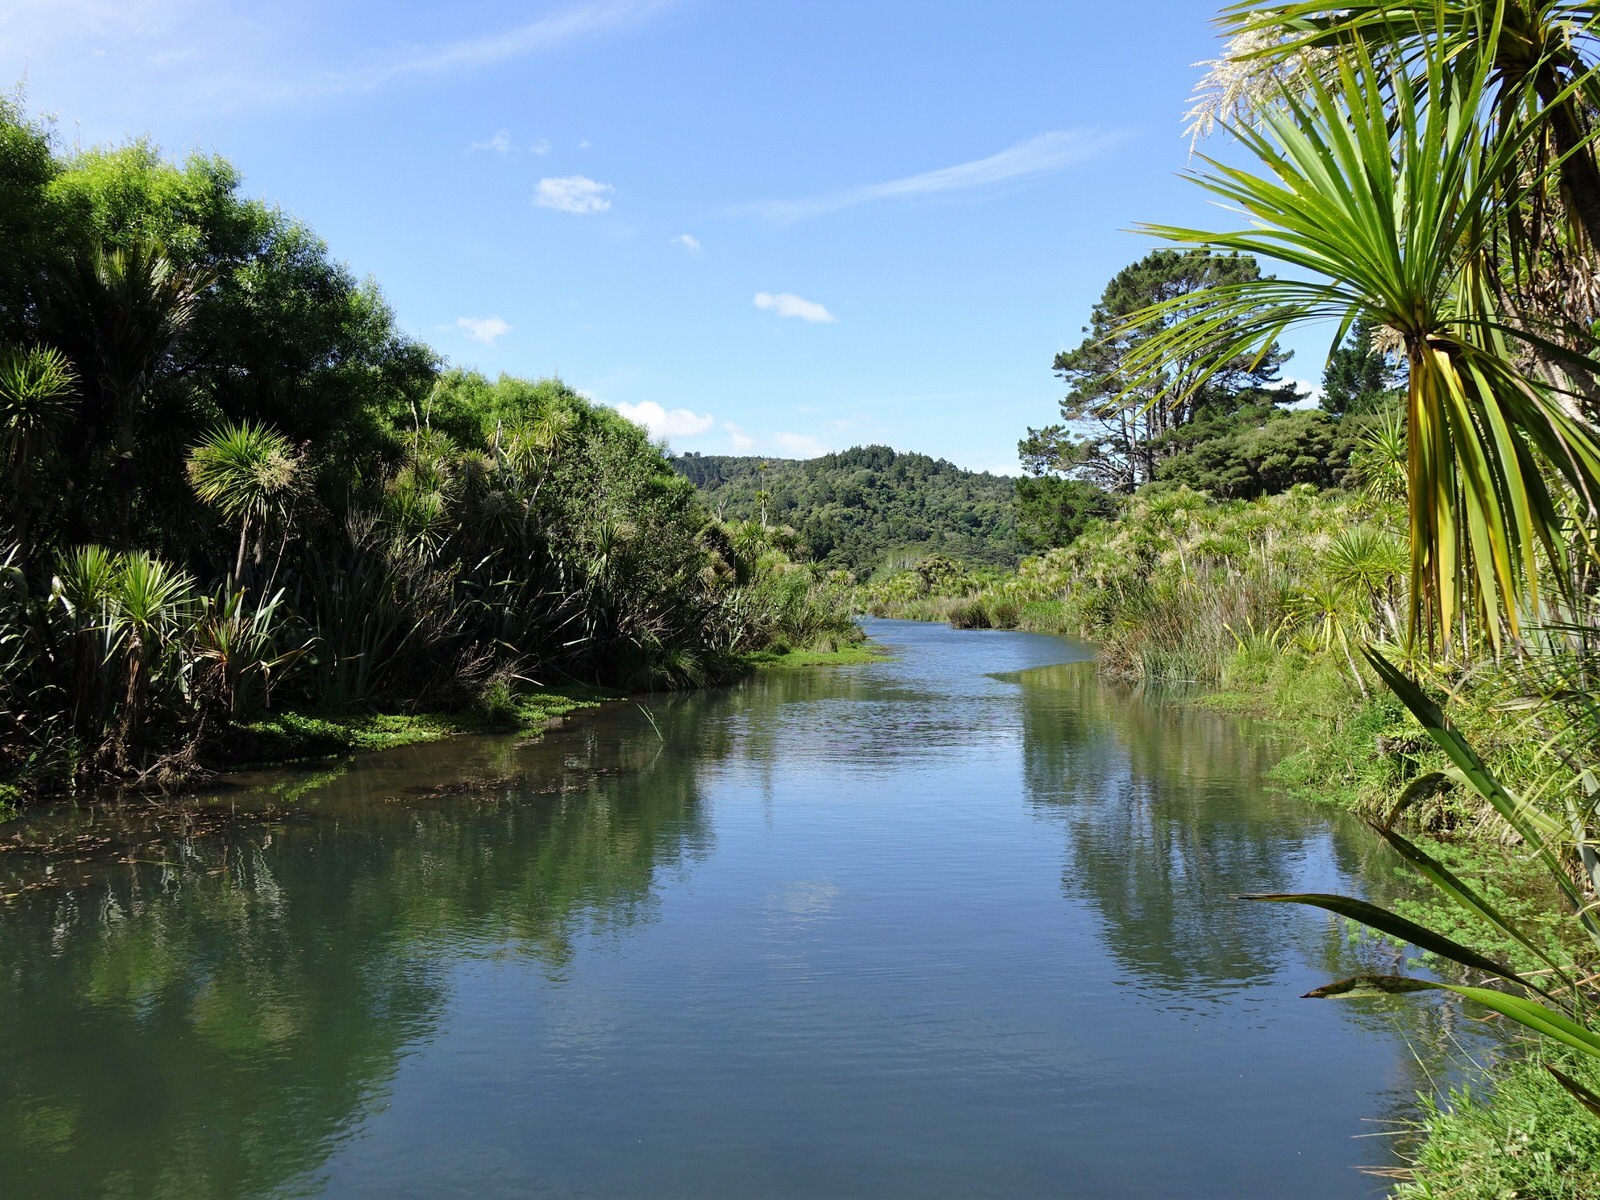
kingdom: Plantae
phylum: Tracheophyta
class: Liliopsida
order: Asparagales
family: Asparagaceae
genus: Cordyline
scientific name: Cordyline australis
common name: Cabbage-palm
